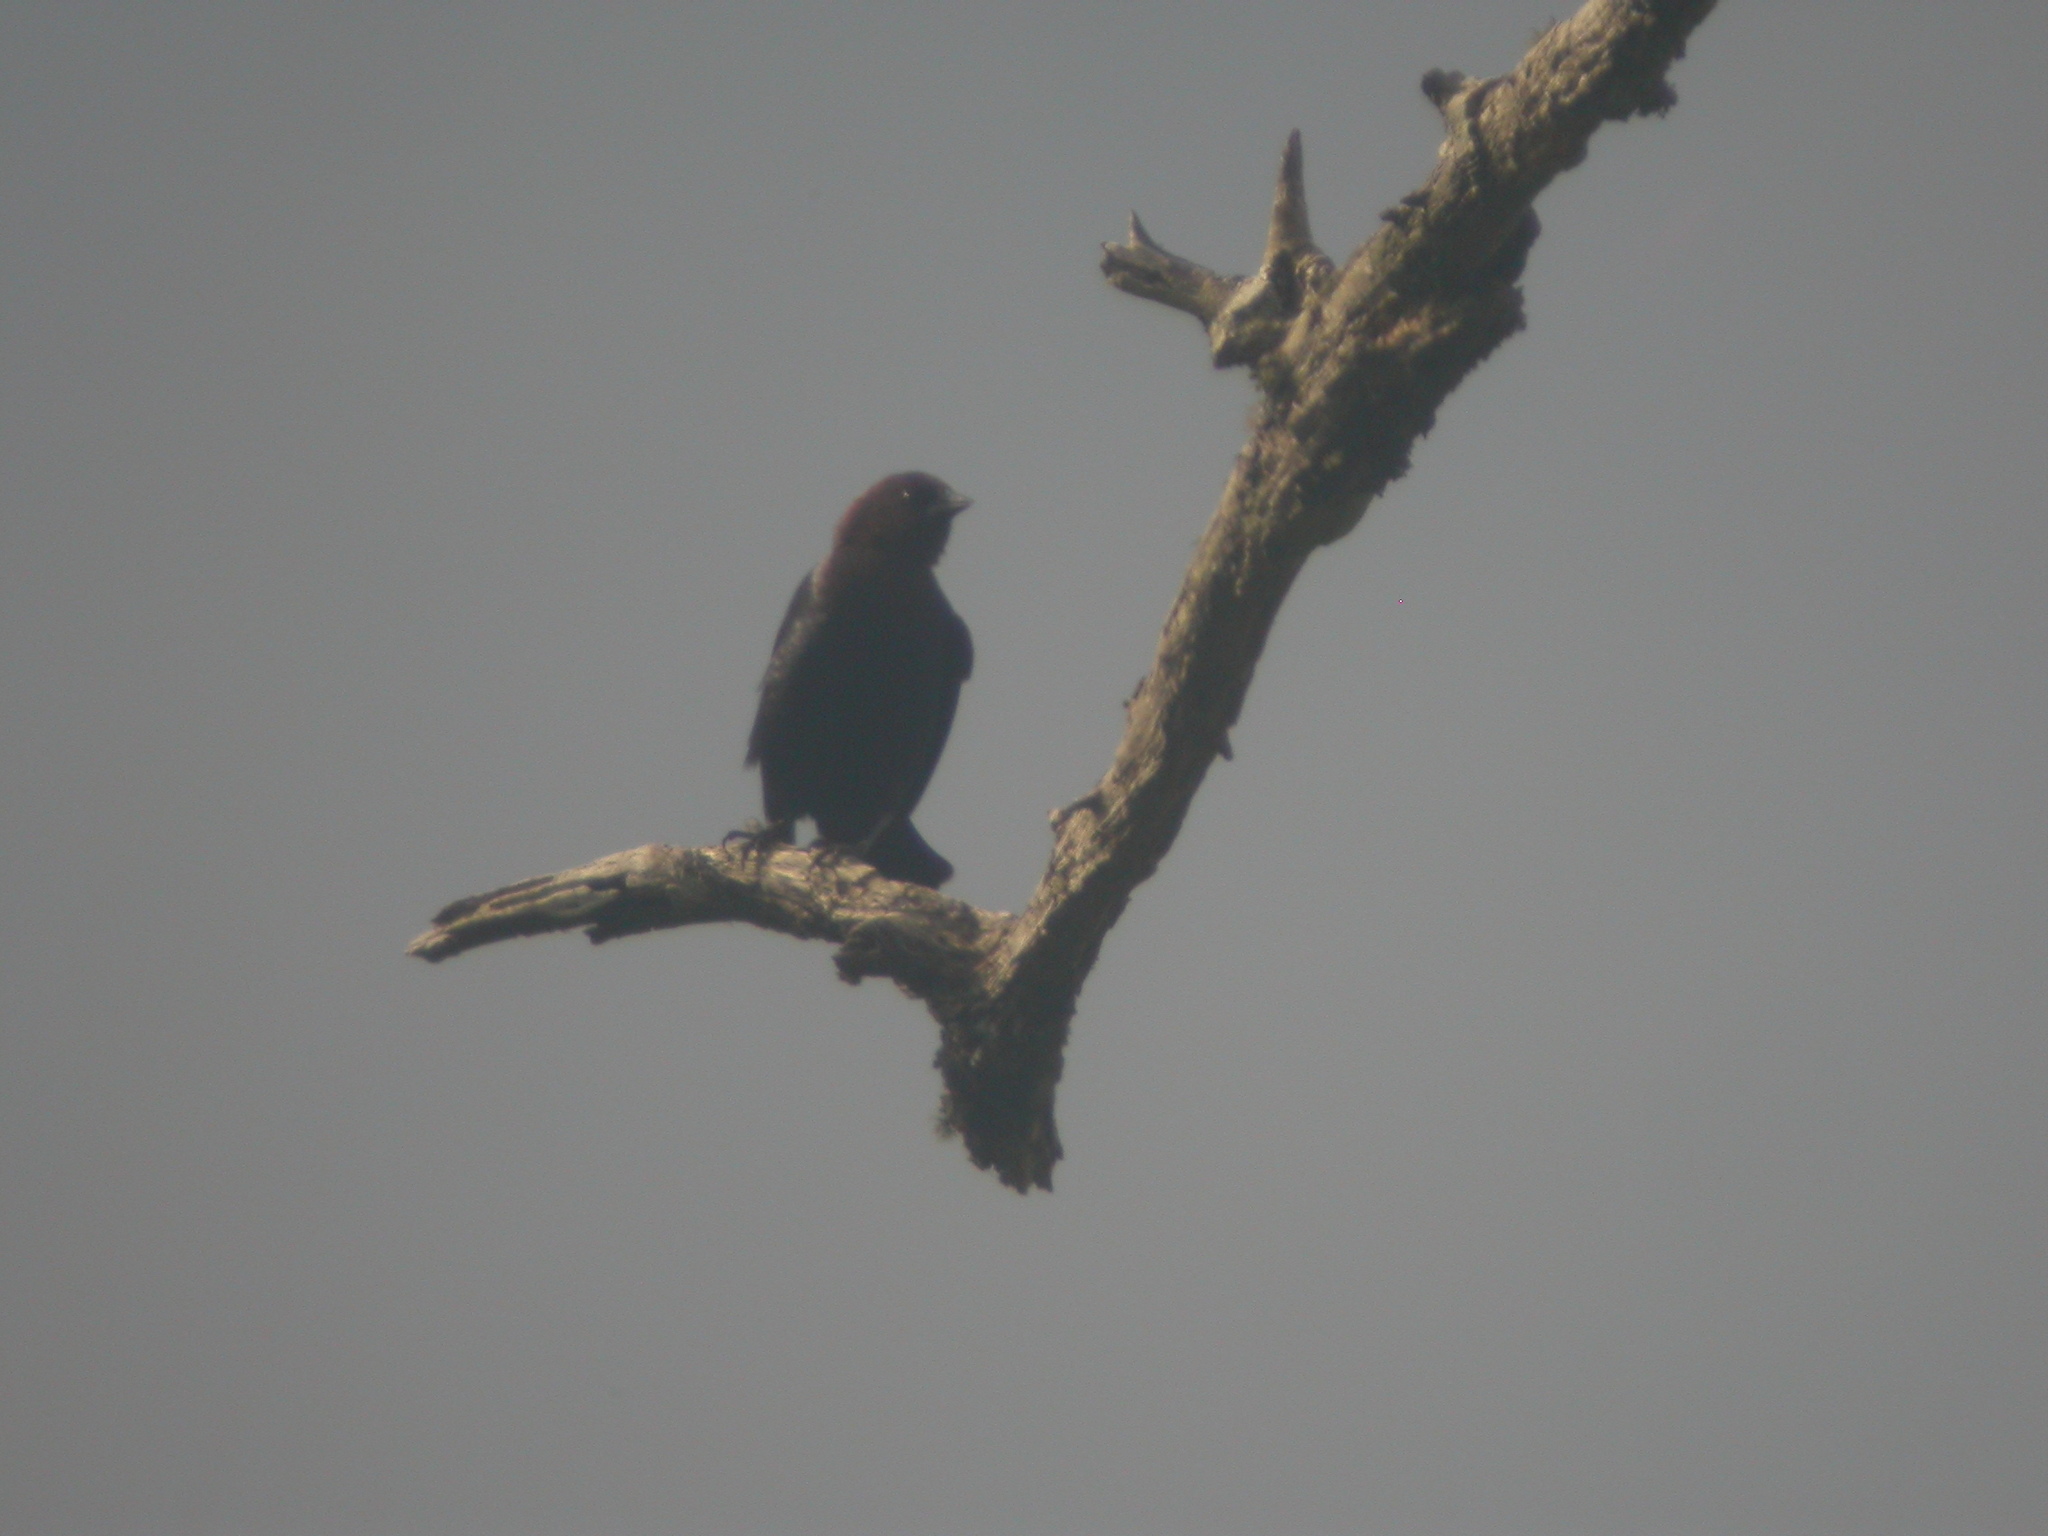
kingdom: Animalia
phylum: Chordata
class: Aves
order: Passeriformes
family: Icteridae
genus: Molothrus
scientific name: Molothrus ater
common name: Brown-headed cowbird
